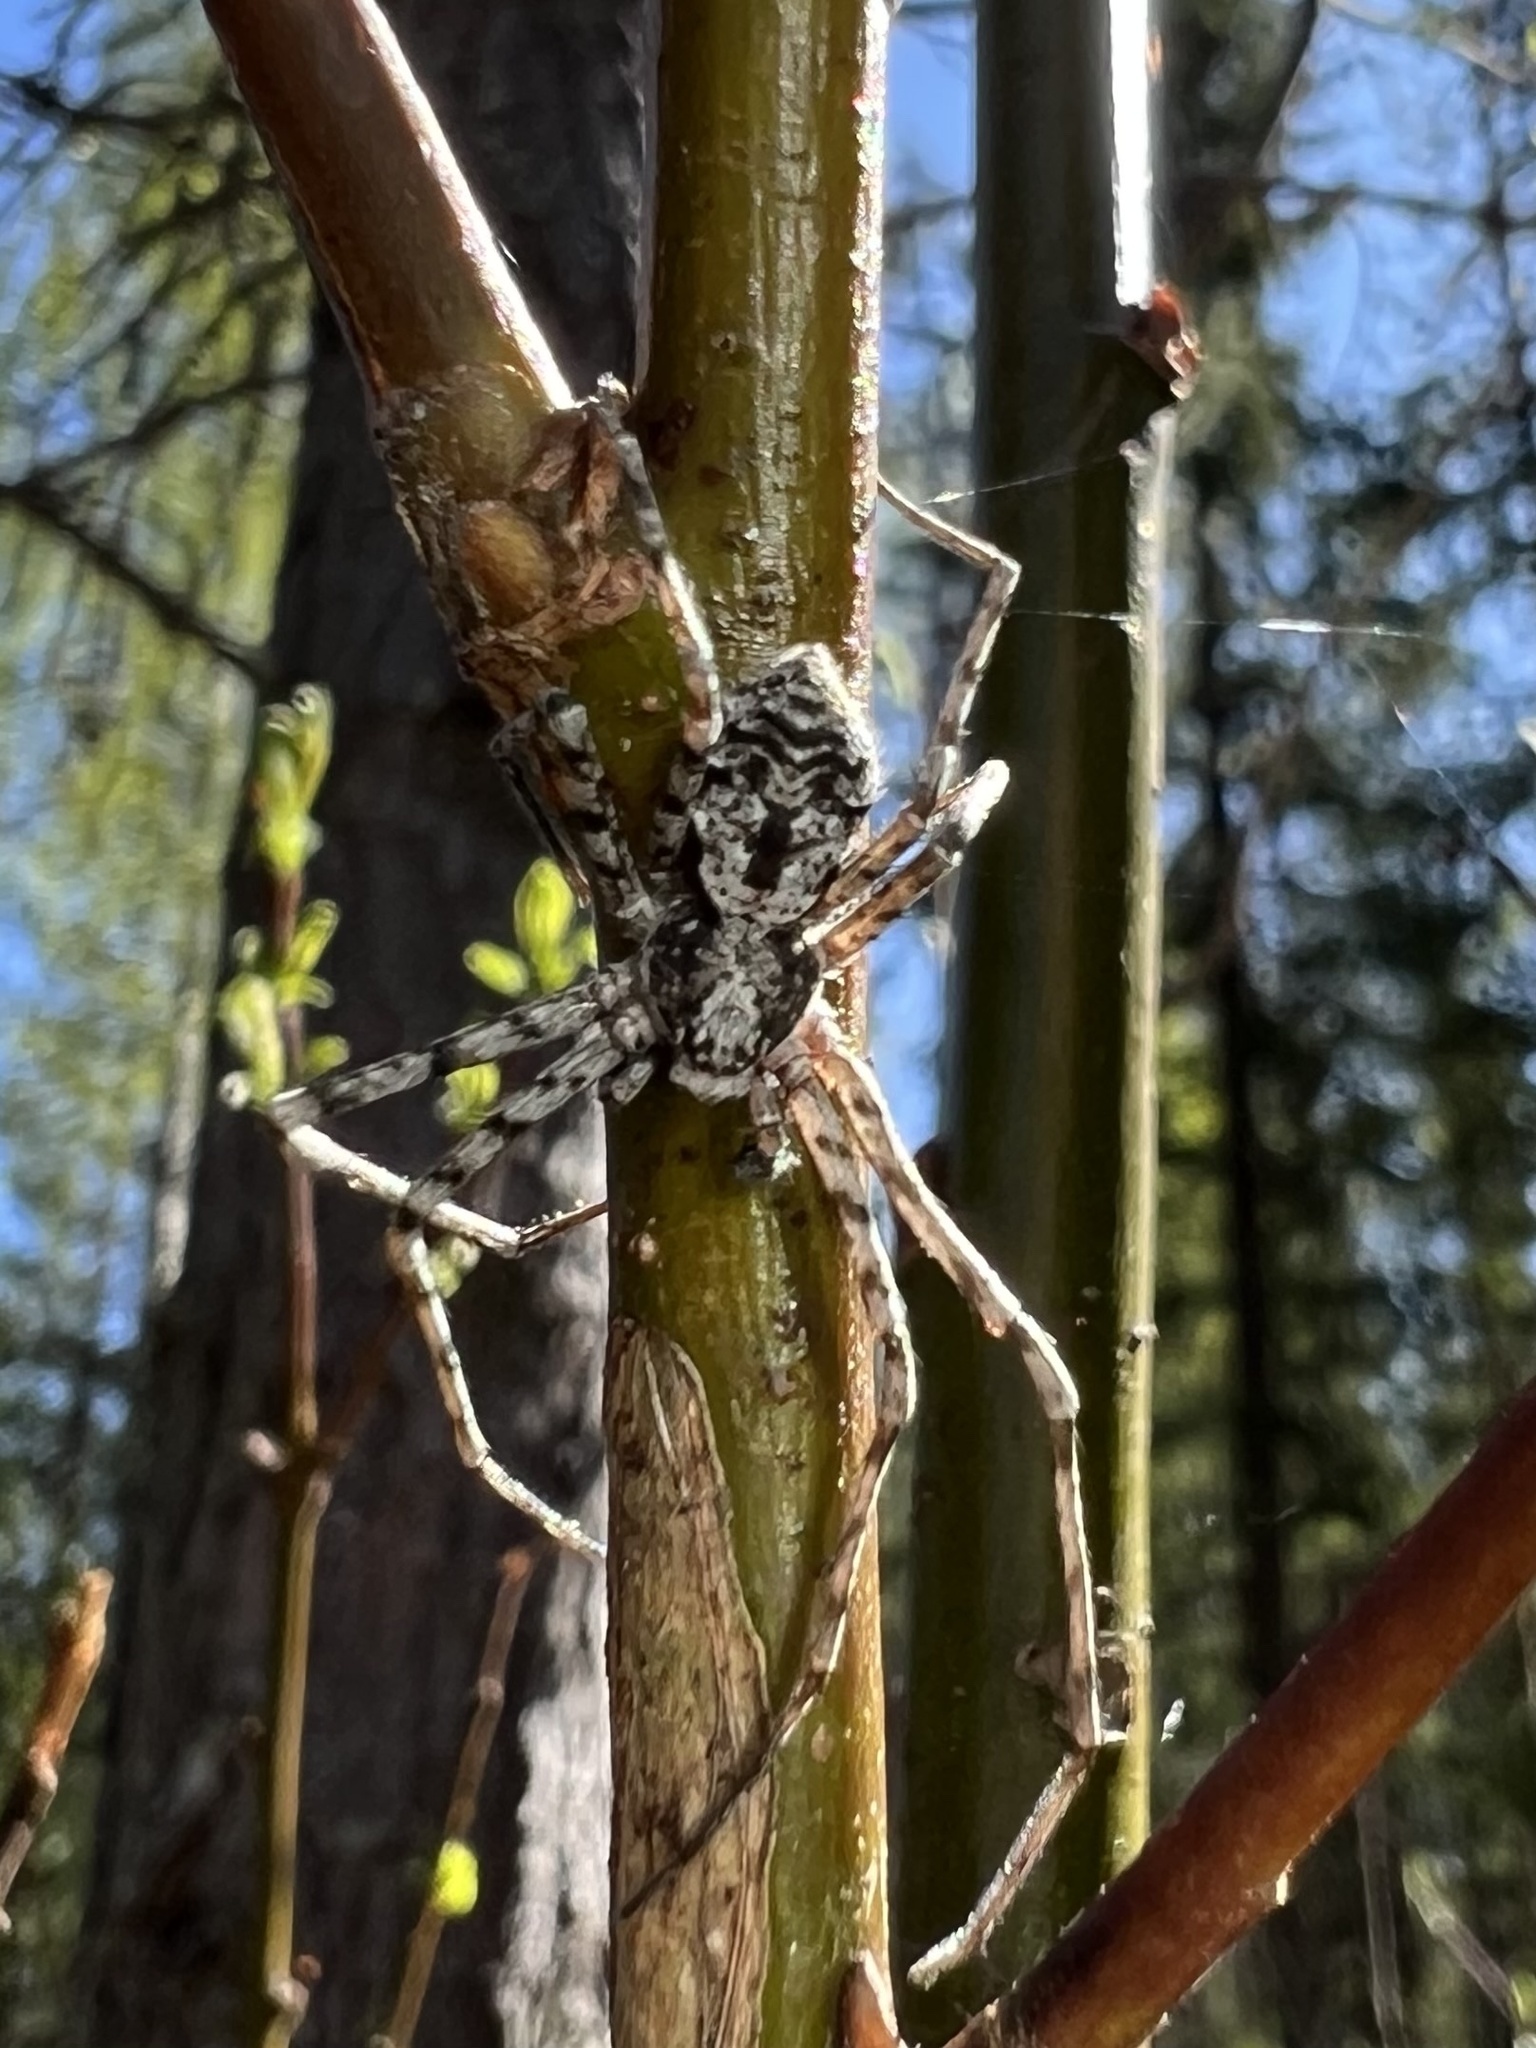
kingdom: Animalia
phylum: Arthropoda
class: Arachnida
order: Araneae
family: Philodromidae
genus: Philodromus
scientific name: Philodromus margaritatus
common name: Lichen running-spider
